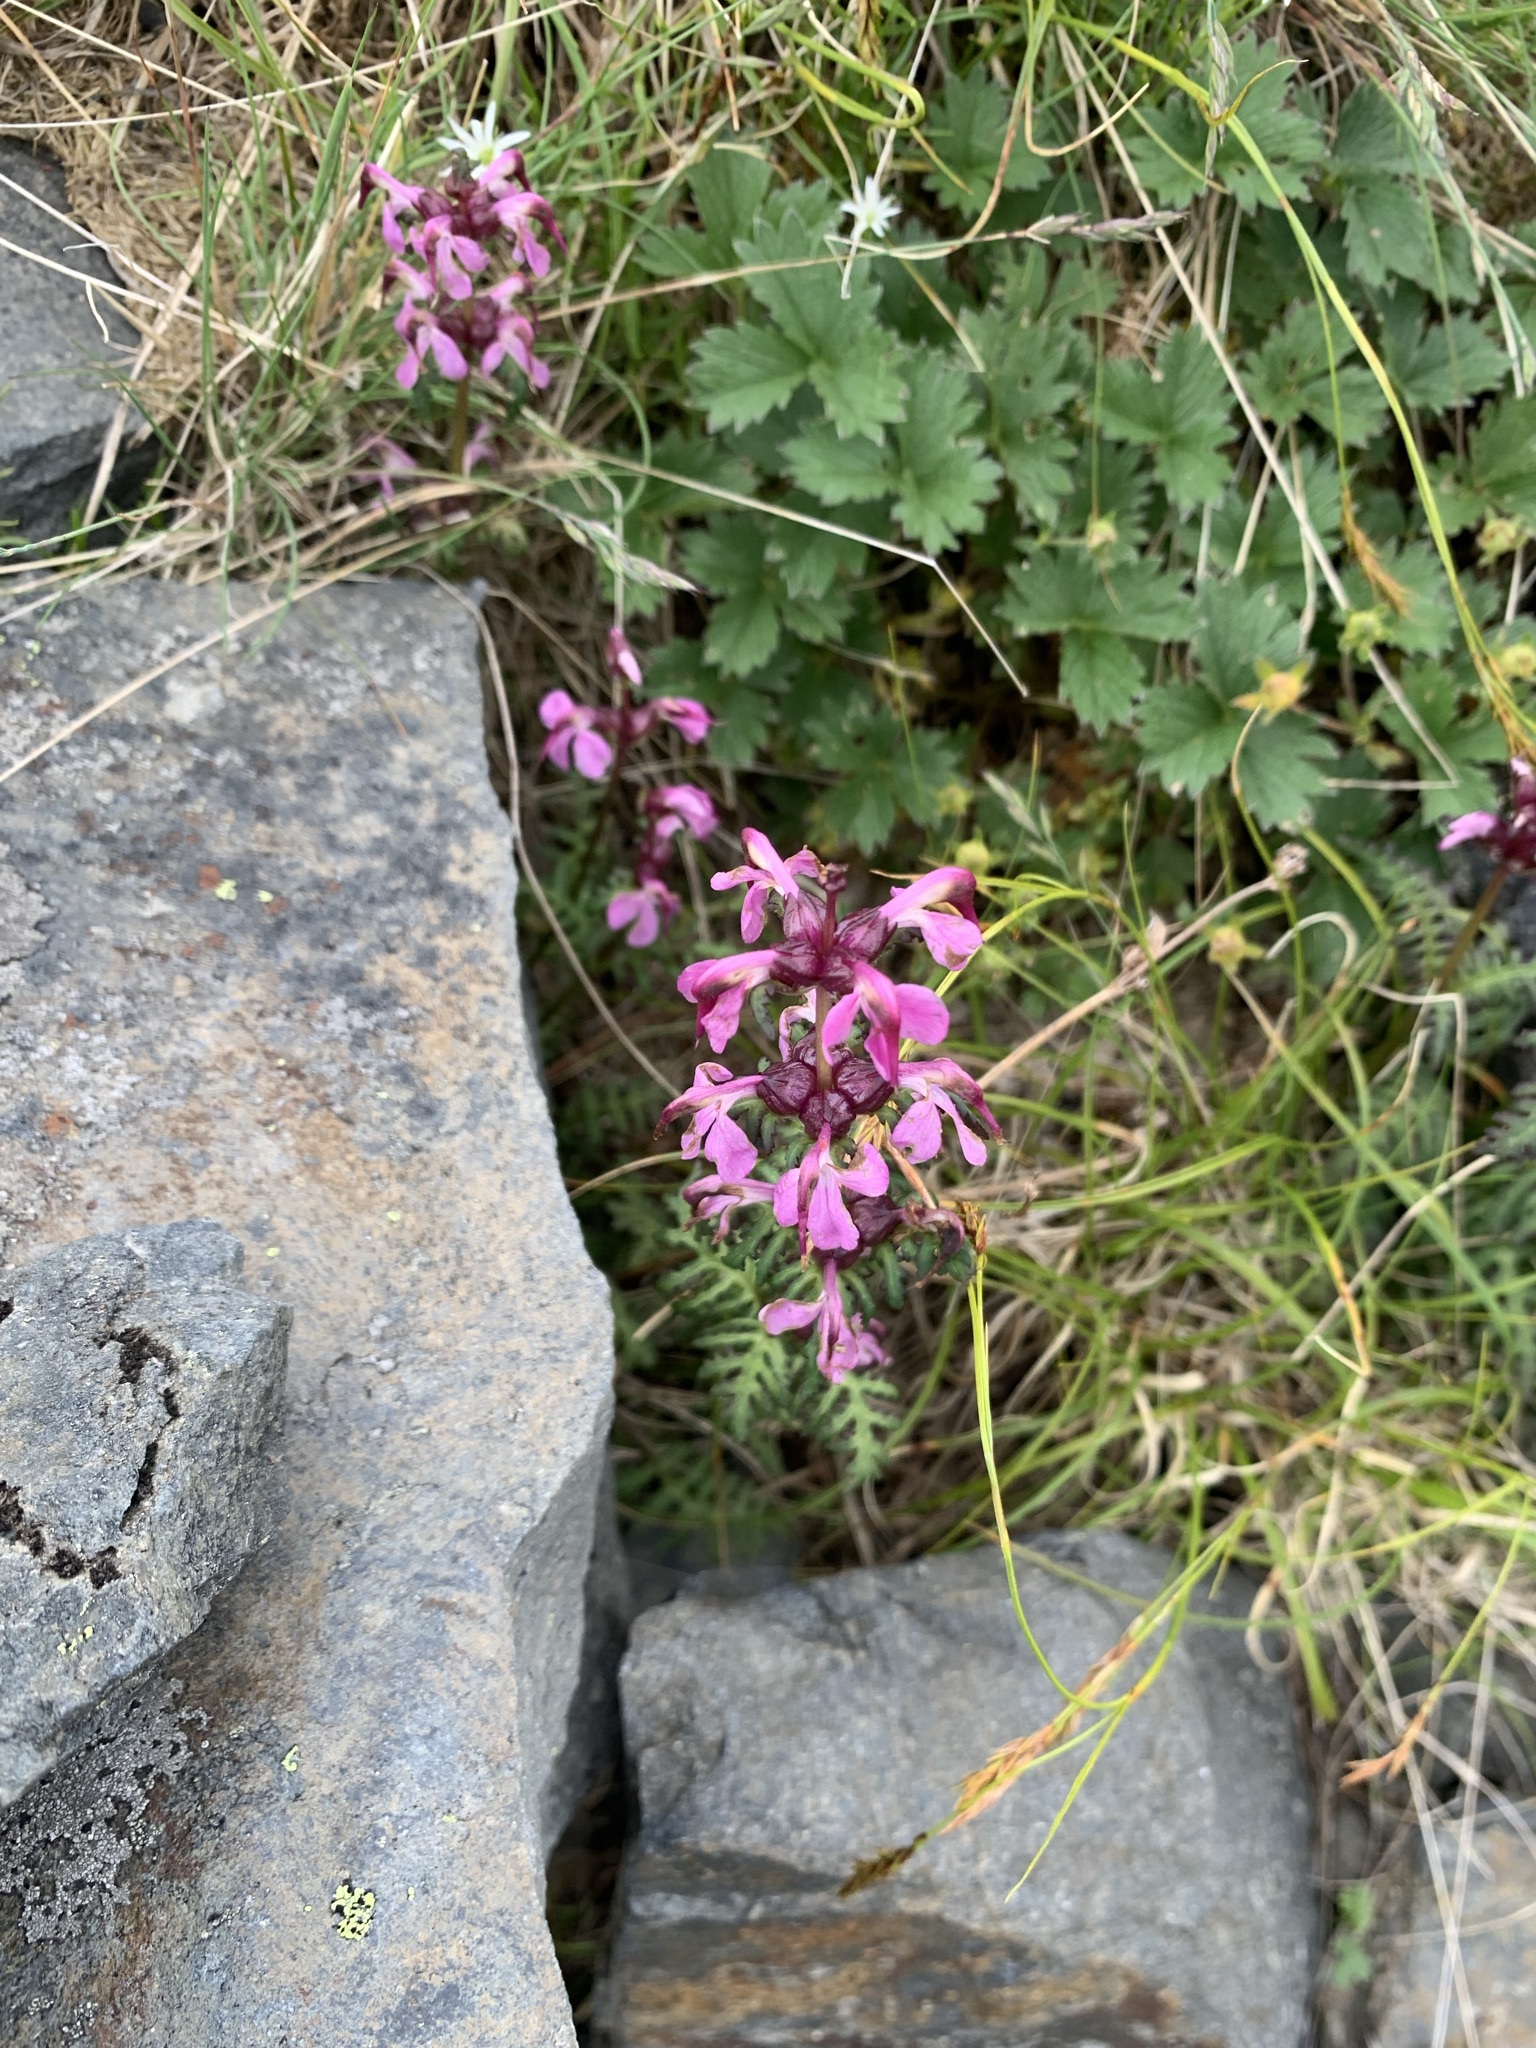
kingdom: Plantae
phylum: Tracheophyta
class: Magnoliopsida
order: Lamiales
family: Orobanchaceae
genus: Pedicularis
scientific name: Pedicularis chamissonis
